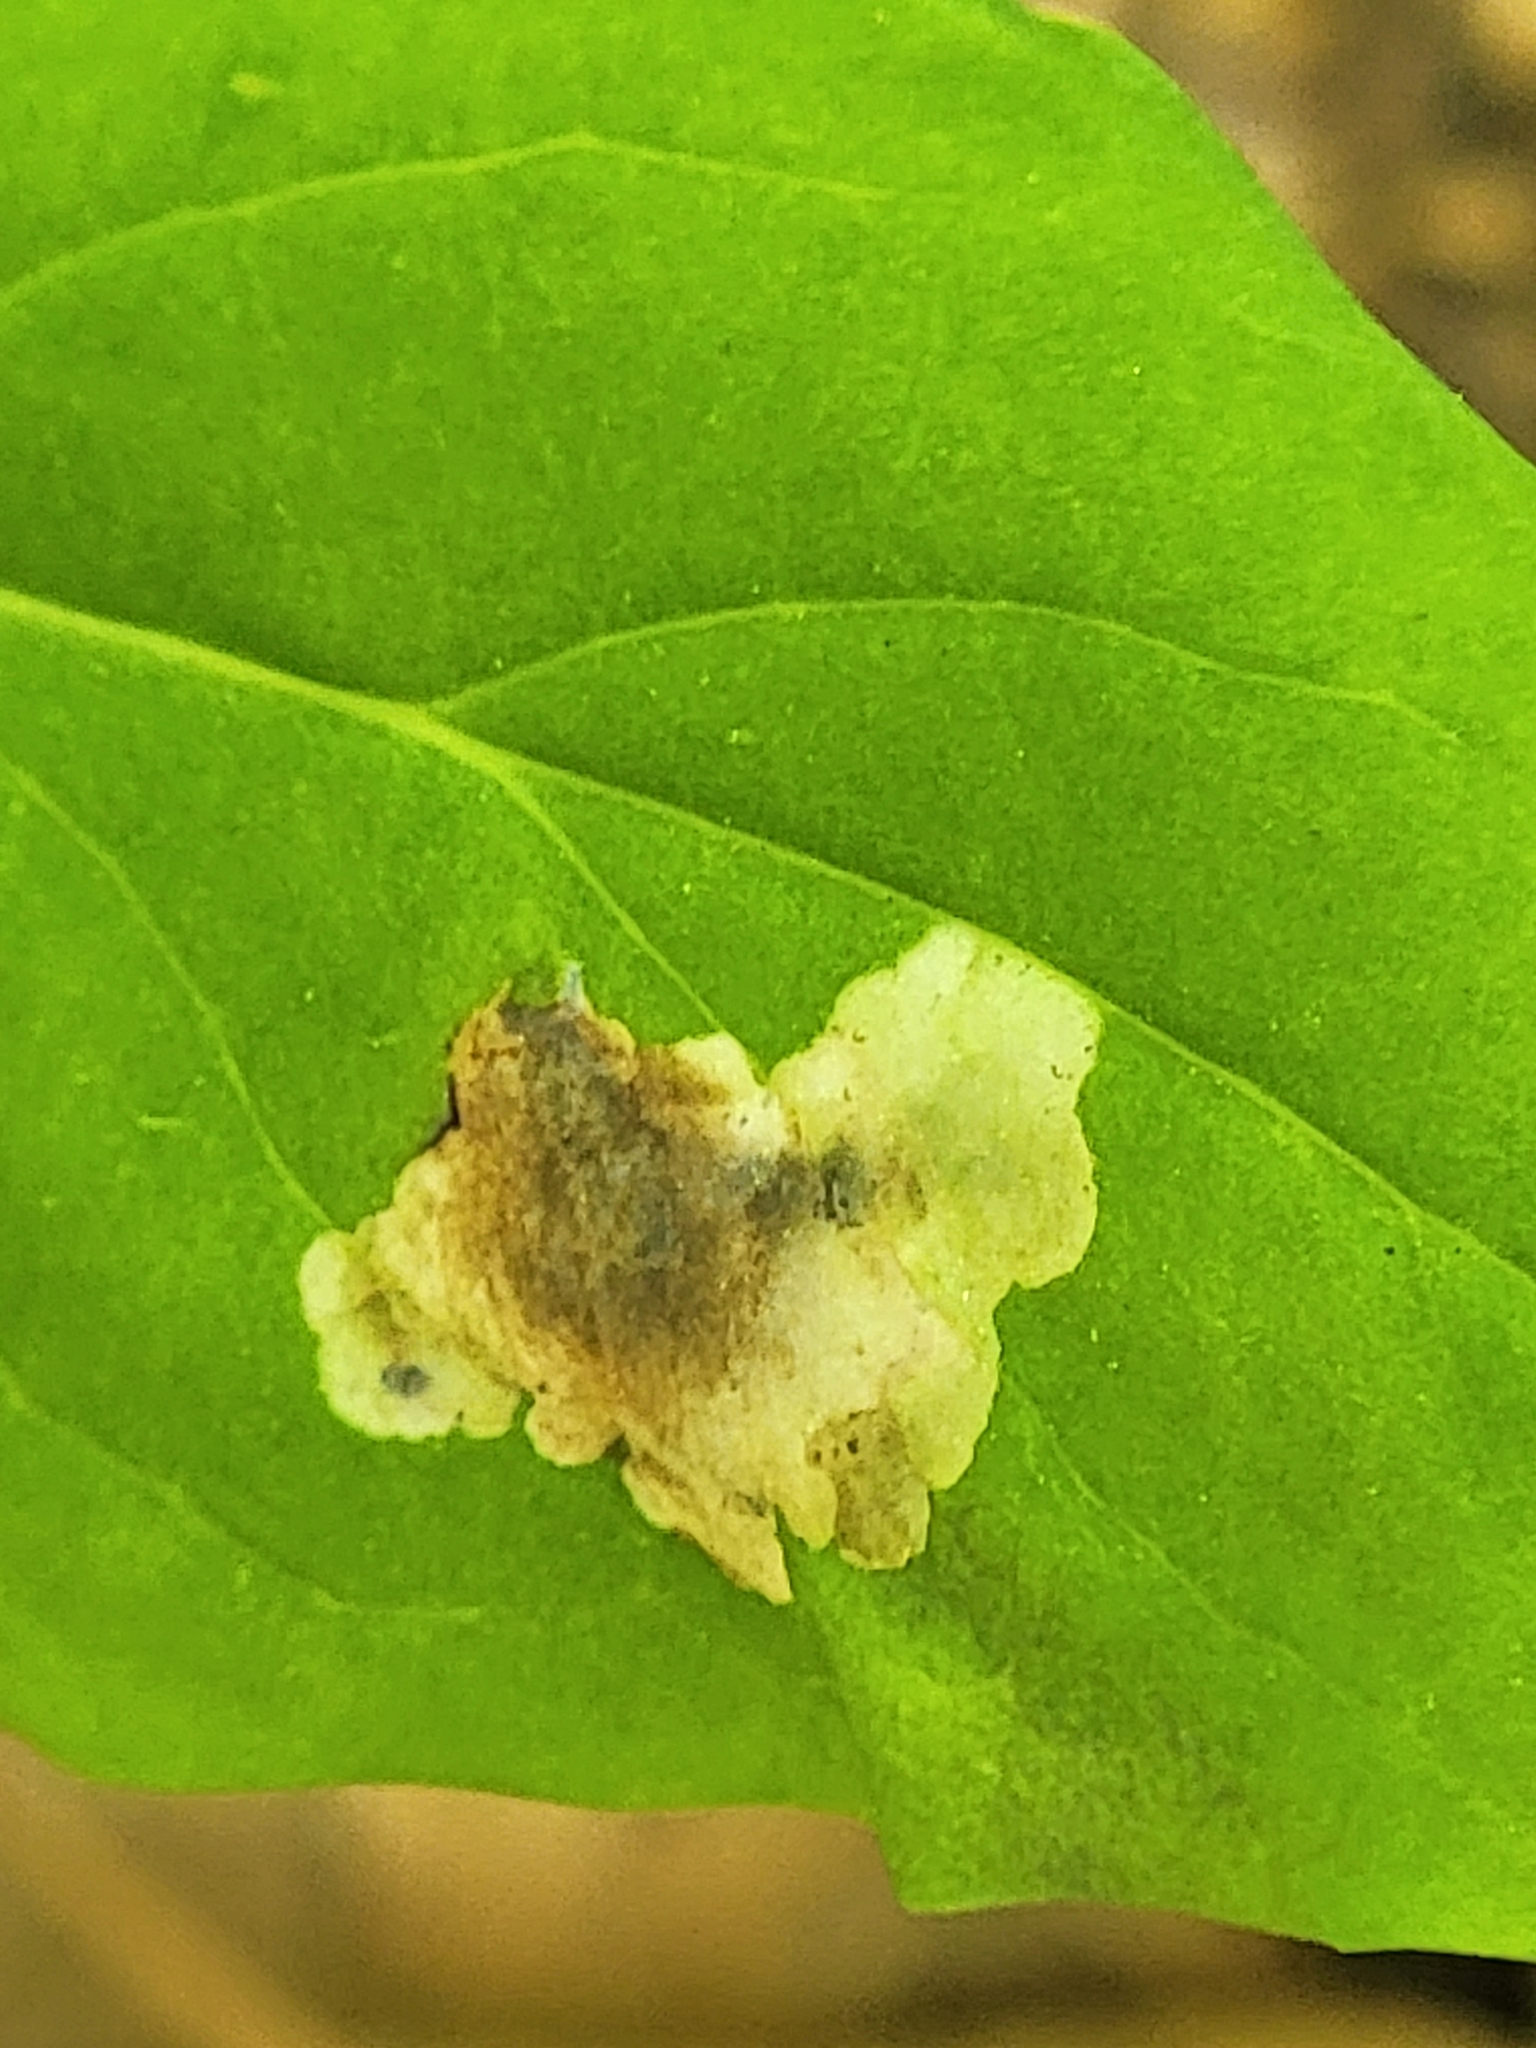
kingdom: Animalia
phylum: Arthropoda
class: Insecta
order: Hymenoptera
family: Tenthredinidae
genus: Kerita
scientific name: Kerita fidala
